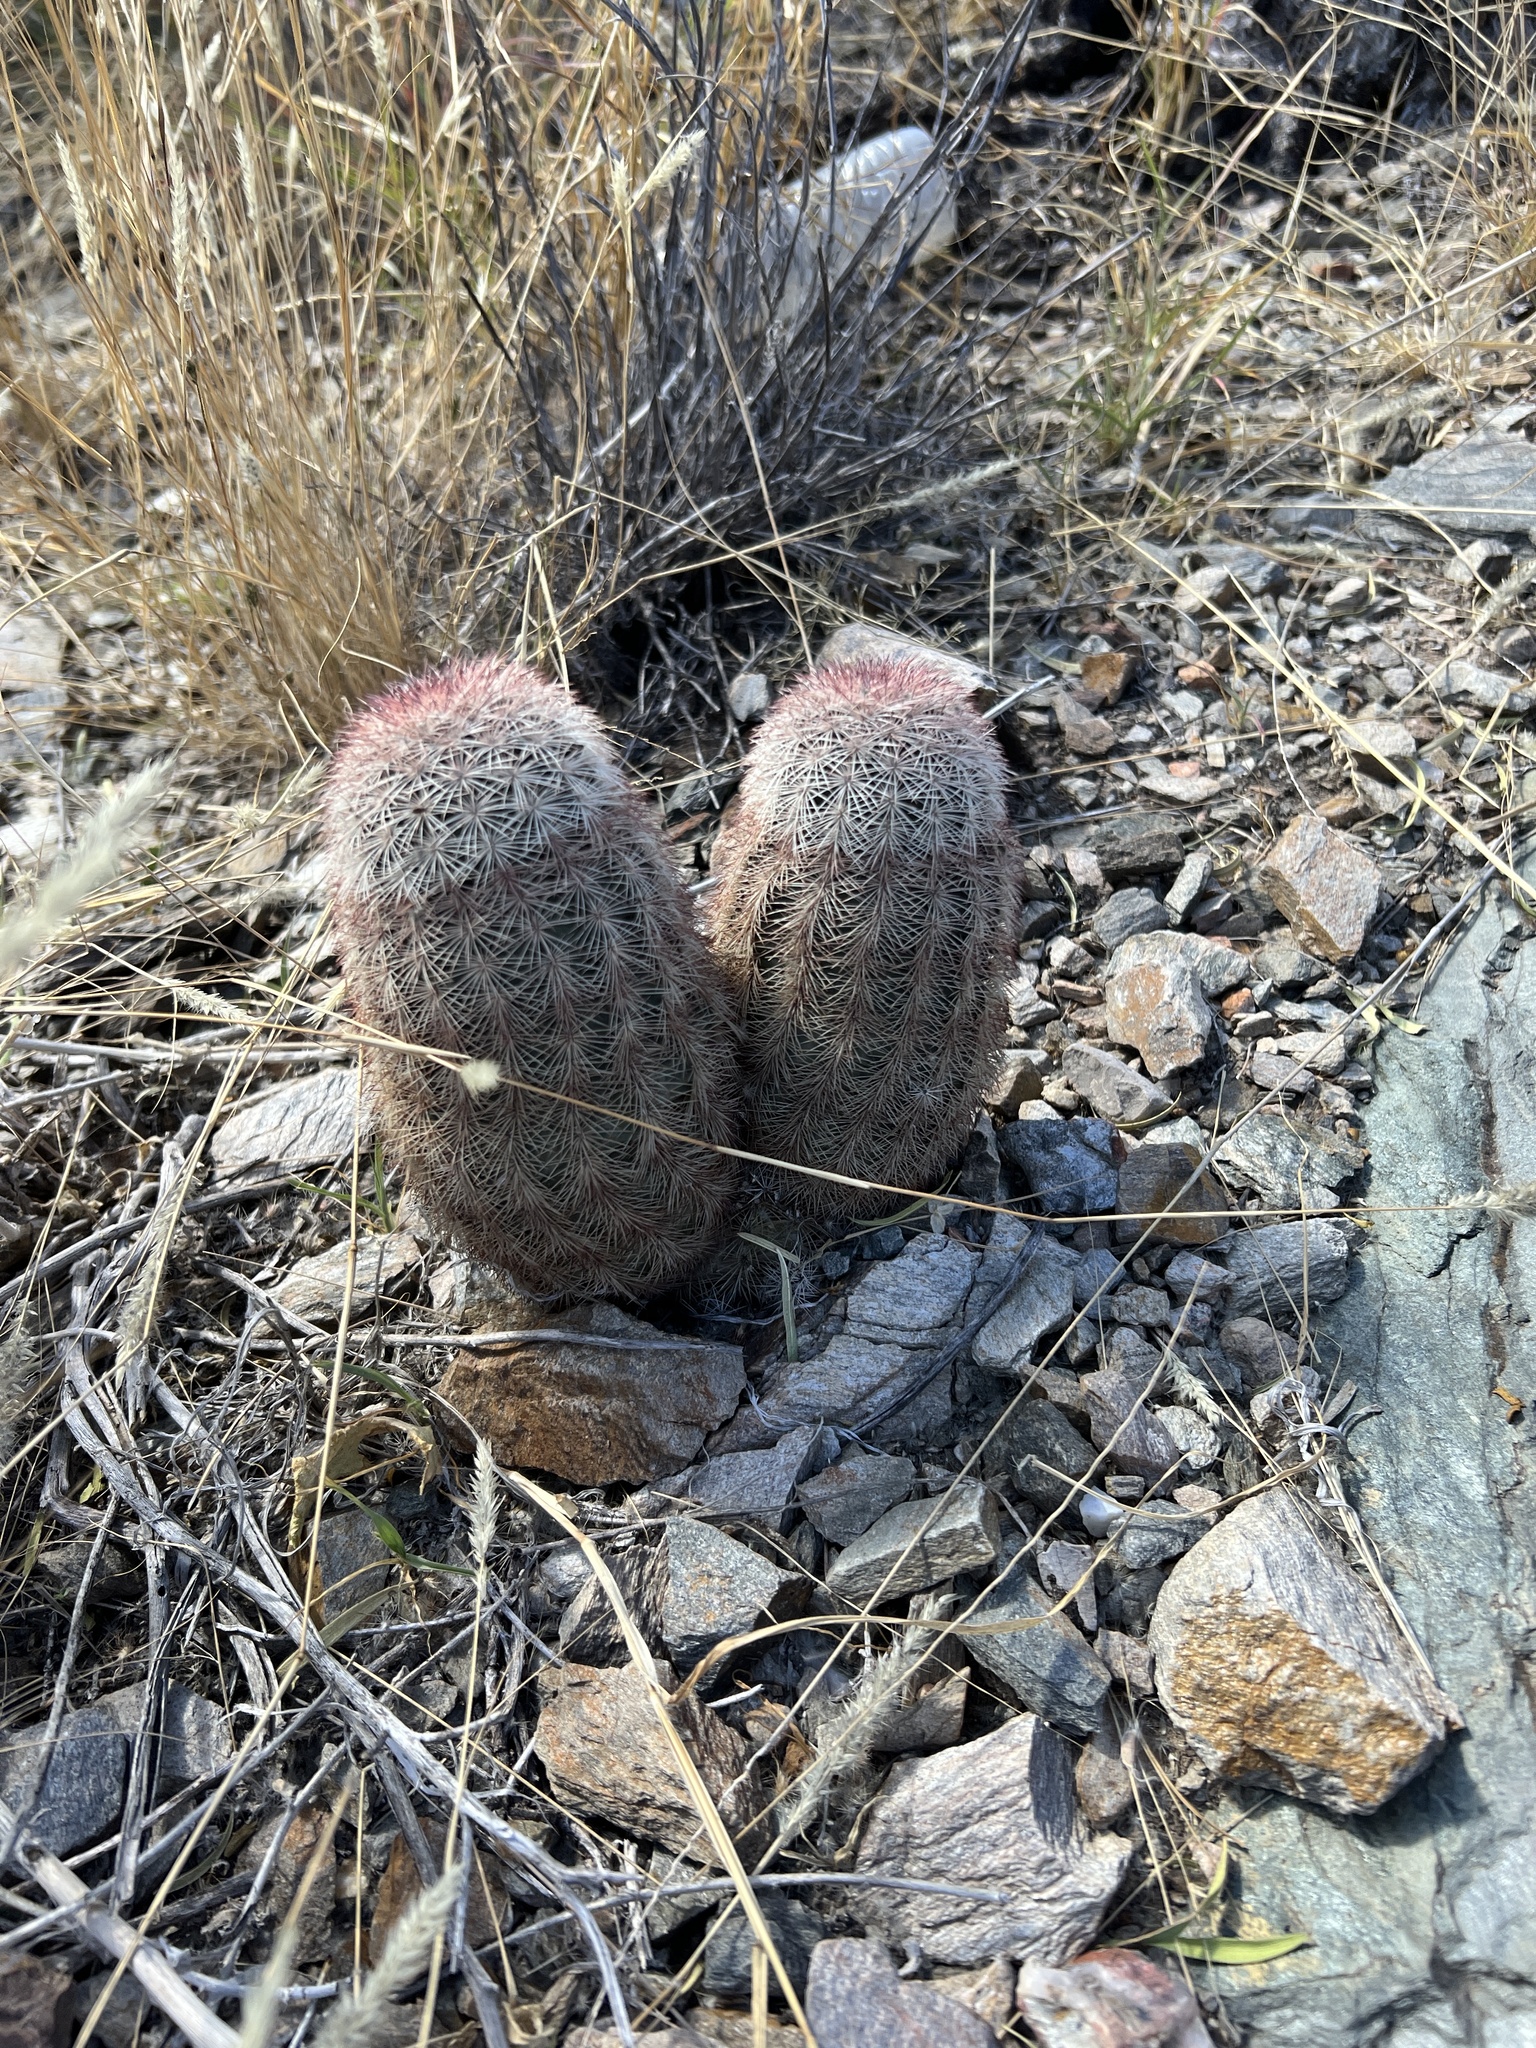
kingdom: Plantae
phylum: Tracheophyta
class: Magnoliopsida
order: Caryophyllales
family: Cactaceae
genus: Echinocereus
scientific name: Echinocereus dasyacanthus
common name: Spiny hedgehog cactus
